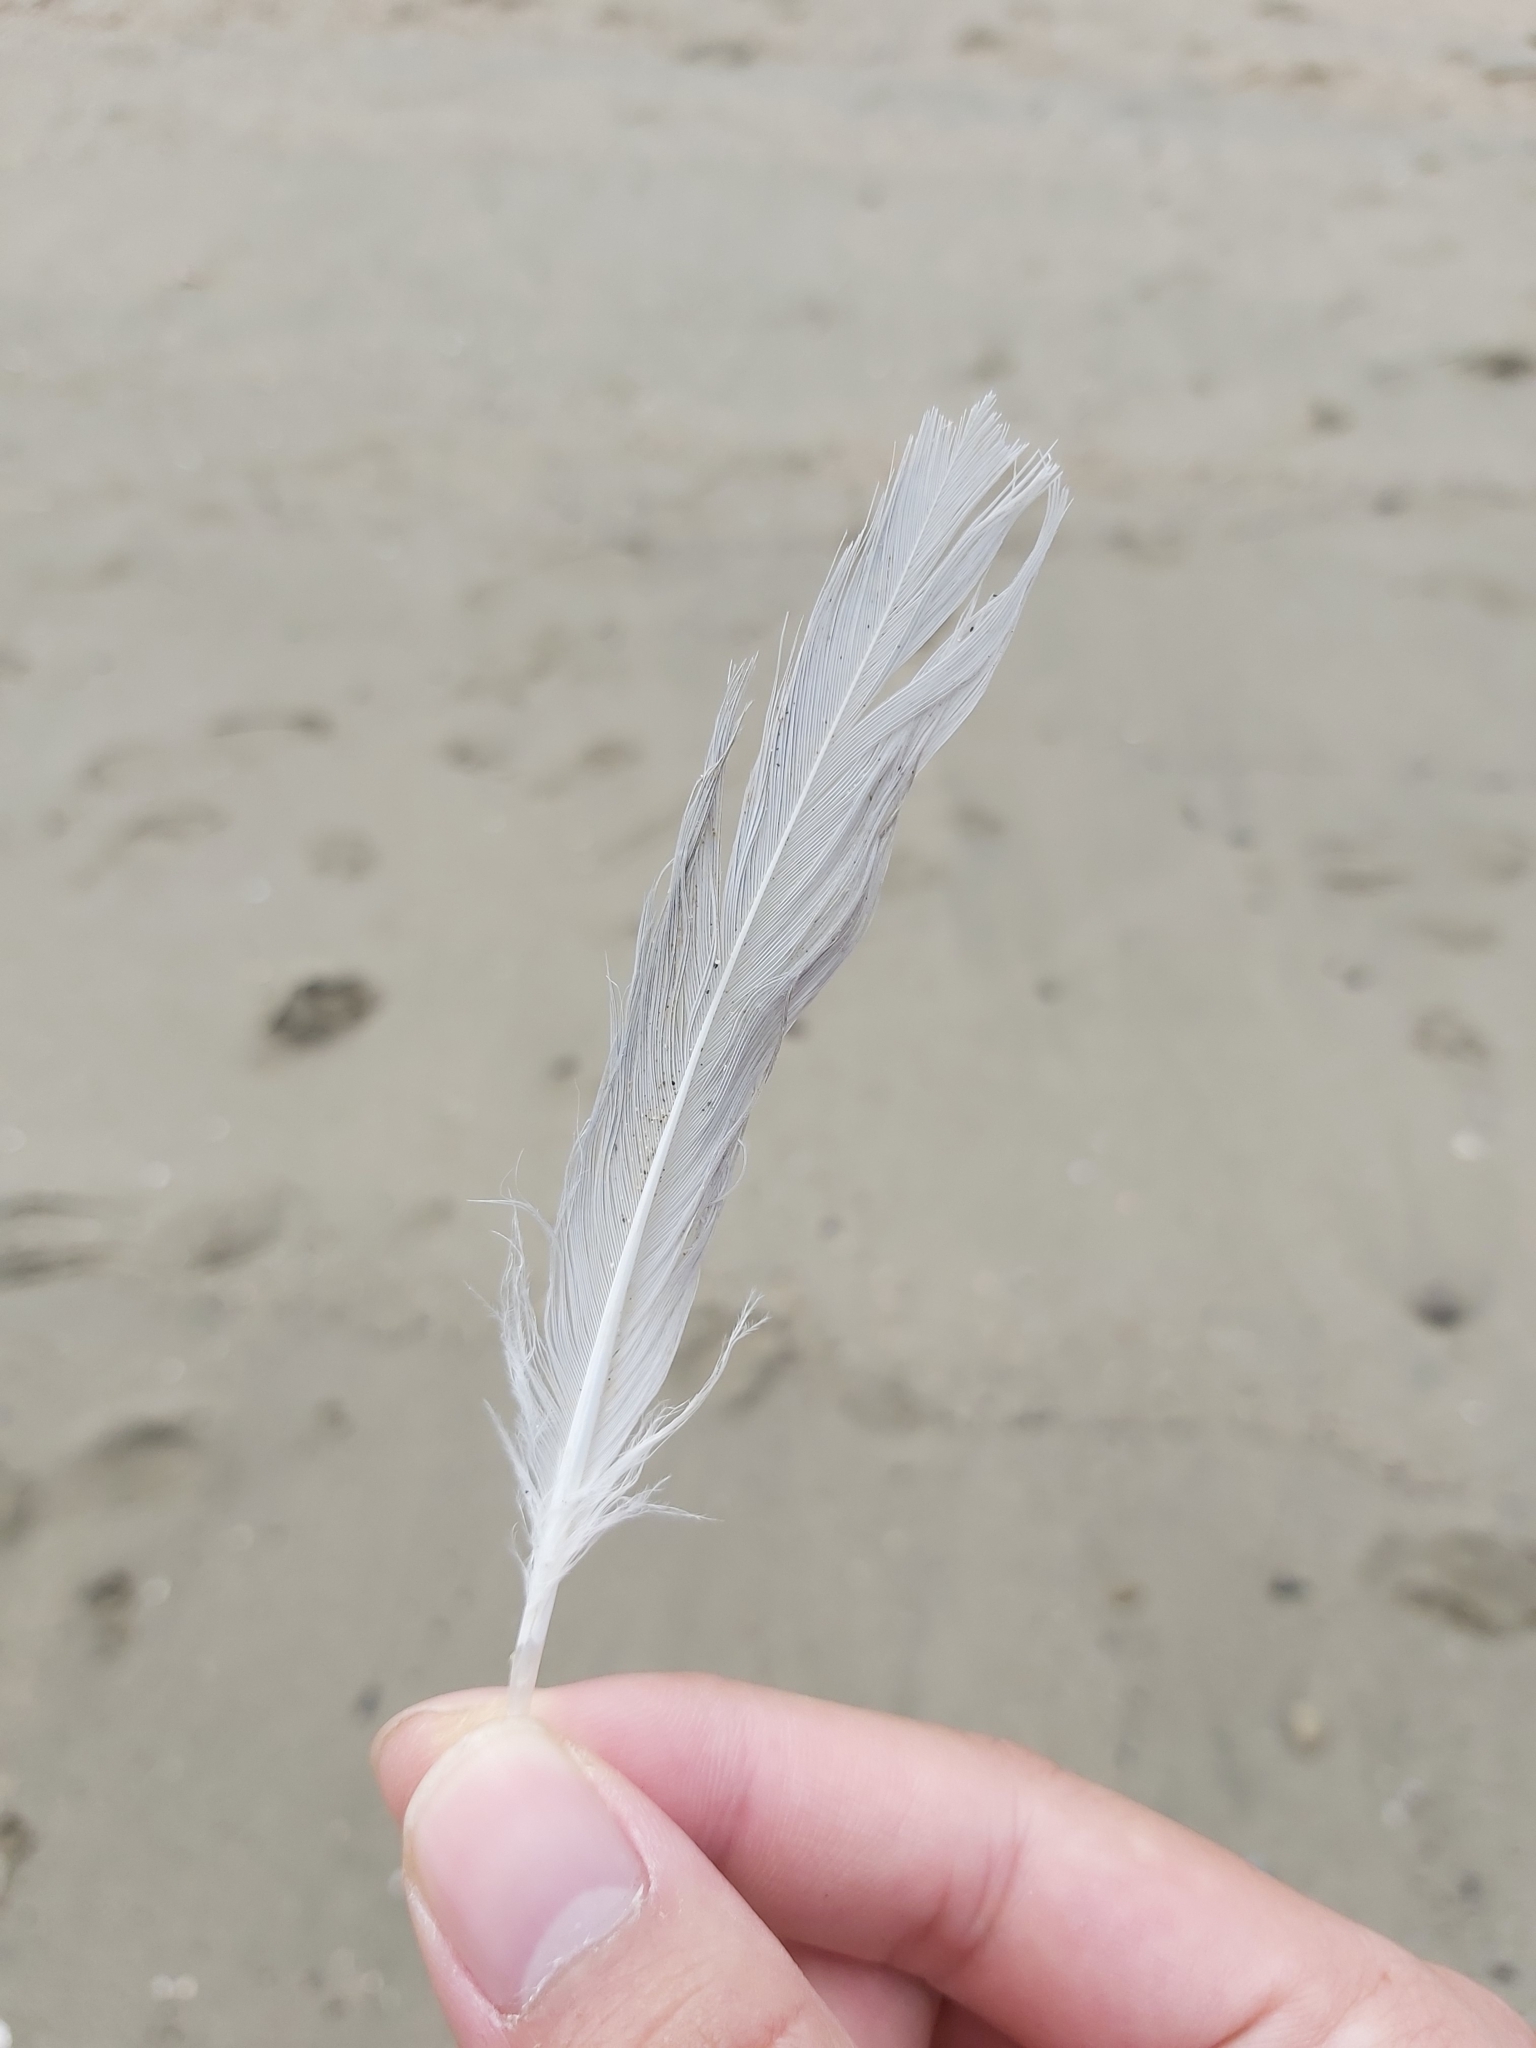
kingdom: Animalia
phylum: Chordata
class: Aves
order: Charadriiformes
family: Laridae
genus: Chroicocephalus
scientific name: Chroicocephalus novaehollandiae
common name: Silver gull
